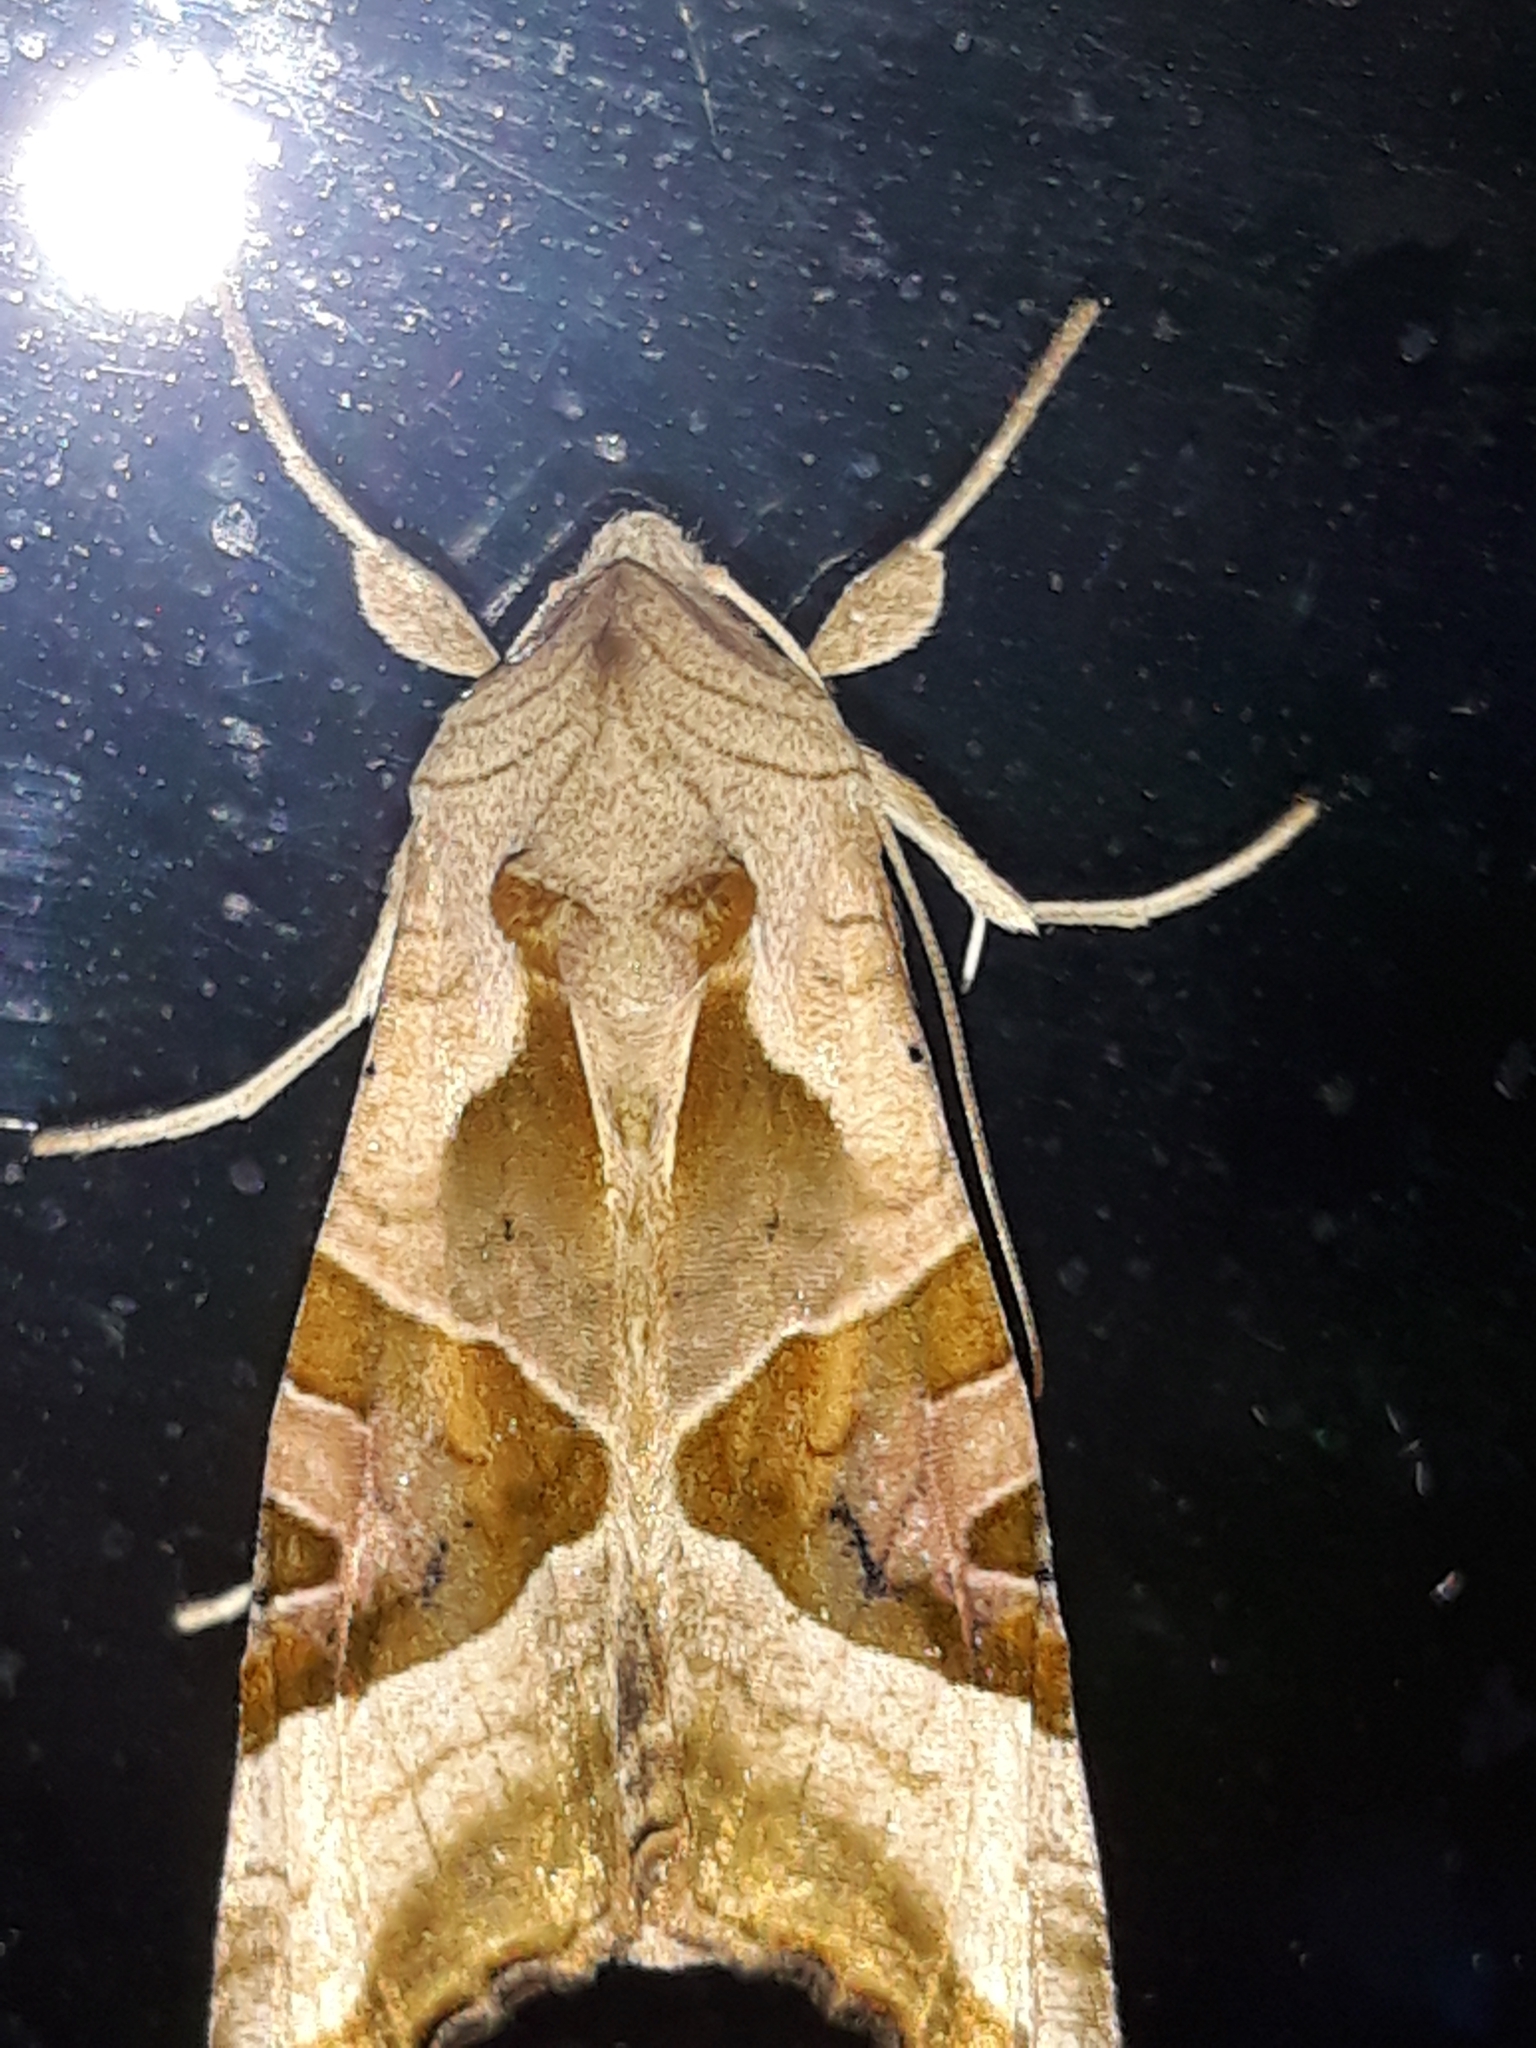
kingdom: Animalia
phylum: Arthropoda
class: Insecta
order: Lepidoptera
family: Noctuidae
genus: Phlogophora
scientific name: Phlogophora meticulosa
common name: Angle shades
